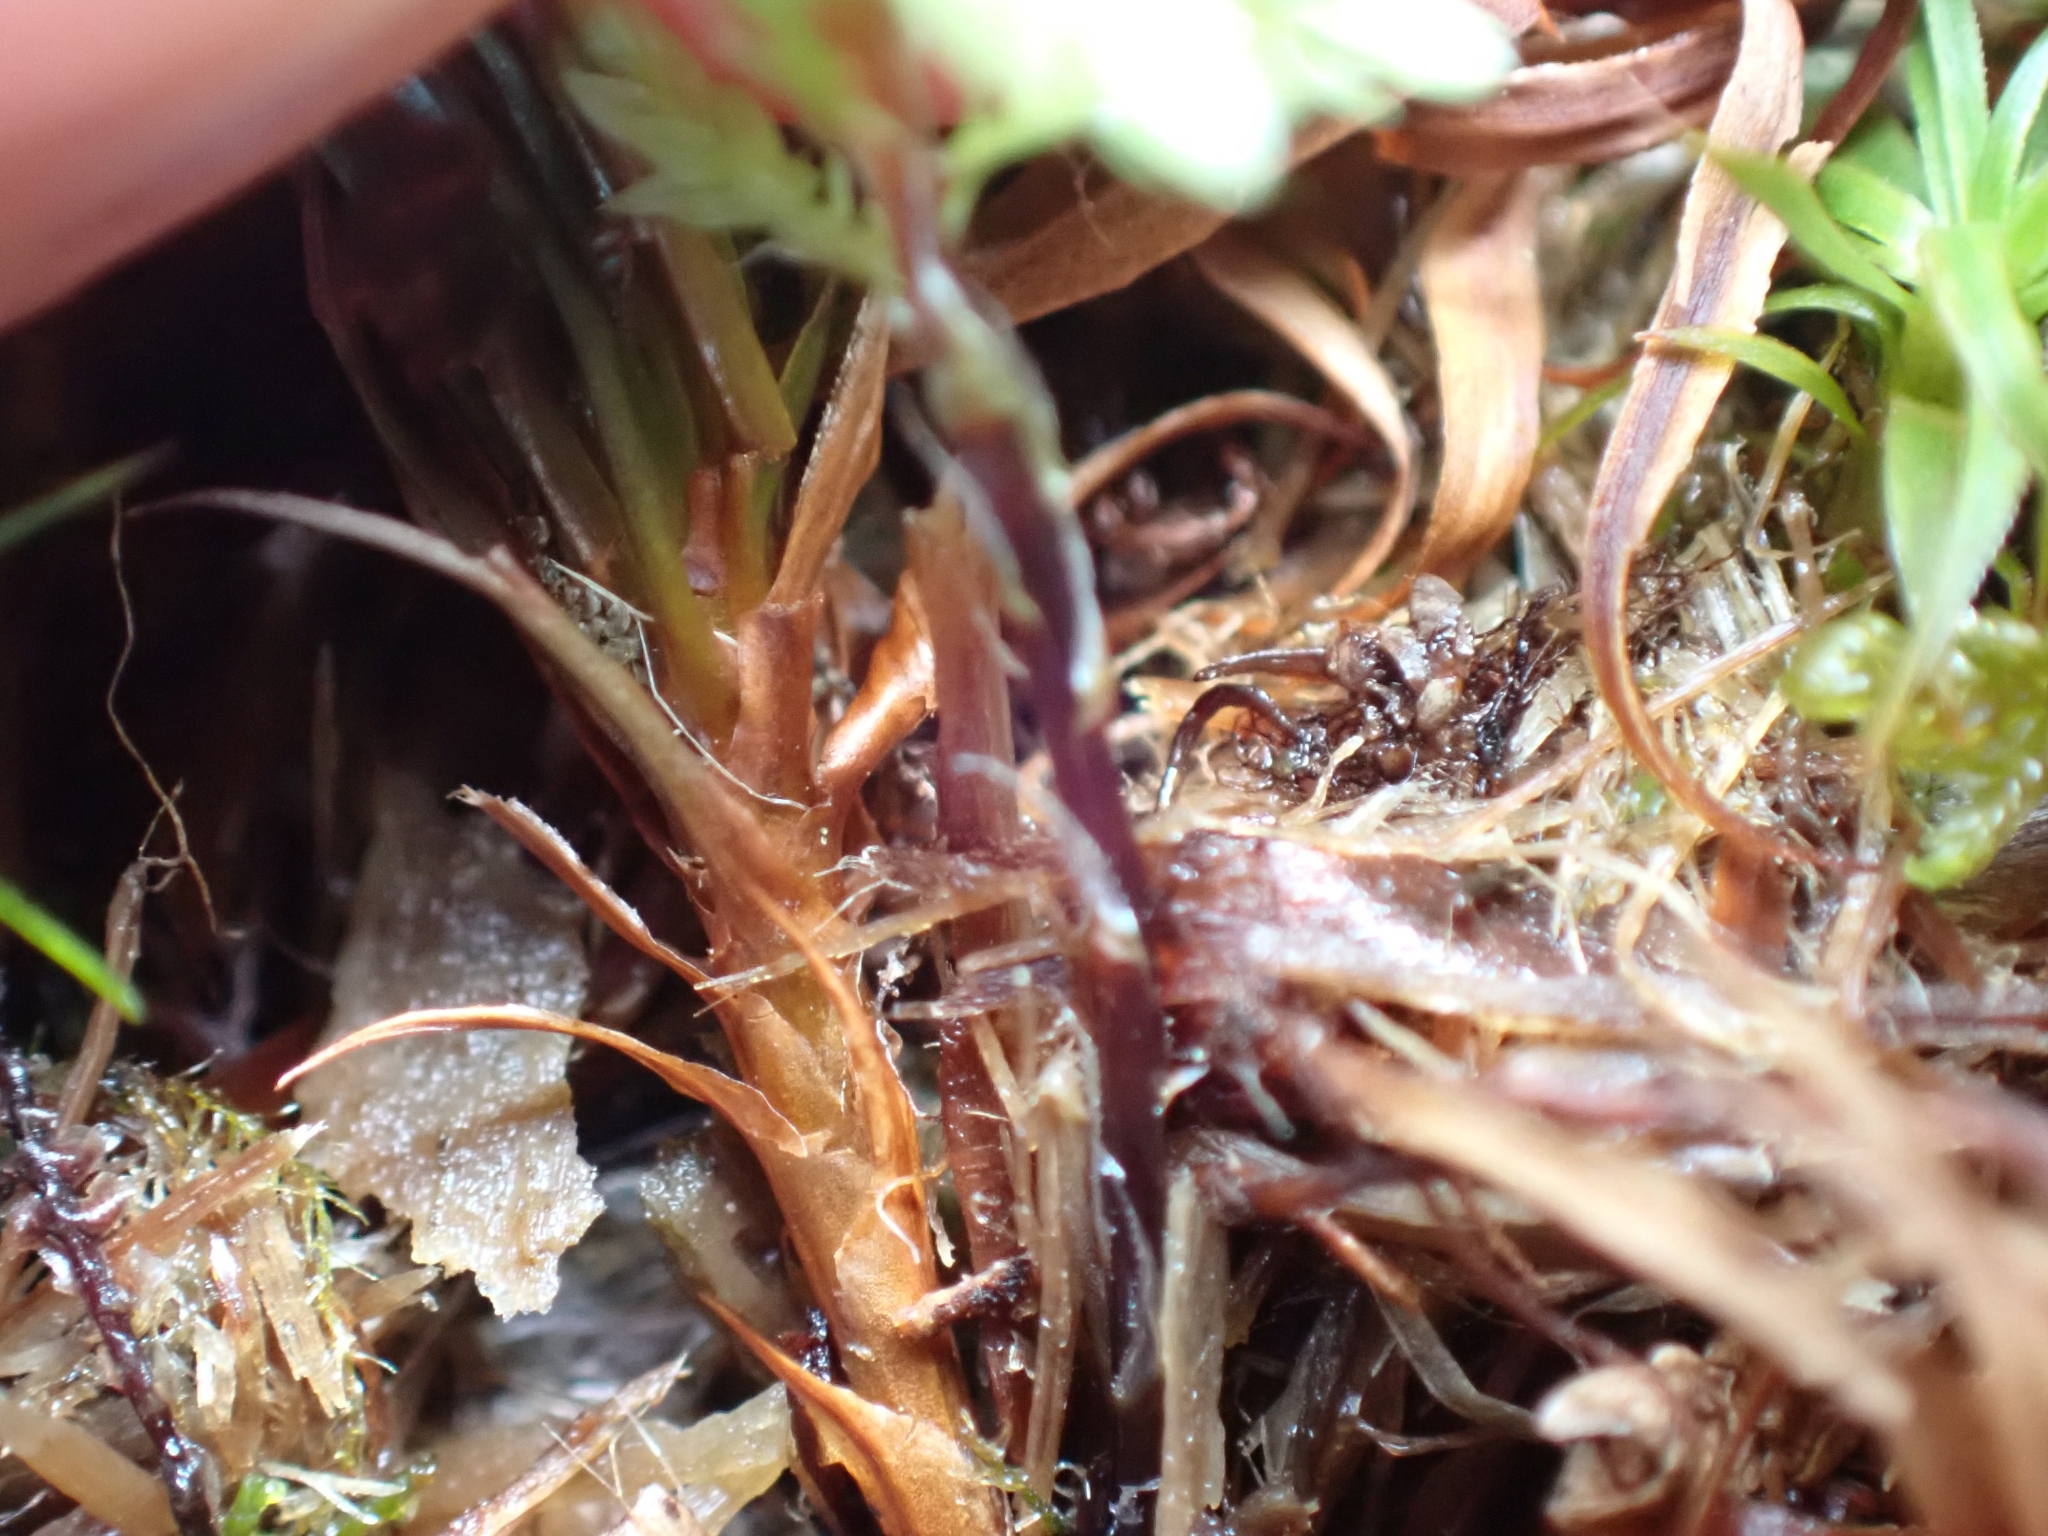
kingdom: Plantae
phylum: Bryophyta
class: Bryopsida
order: Bryales
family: Mniaceae
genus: Leucolepis
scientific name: Leucolepis acanthoneura
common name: Leucolepis umbrella moss
